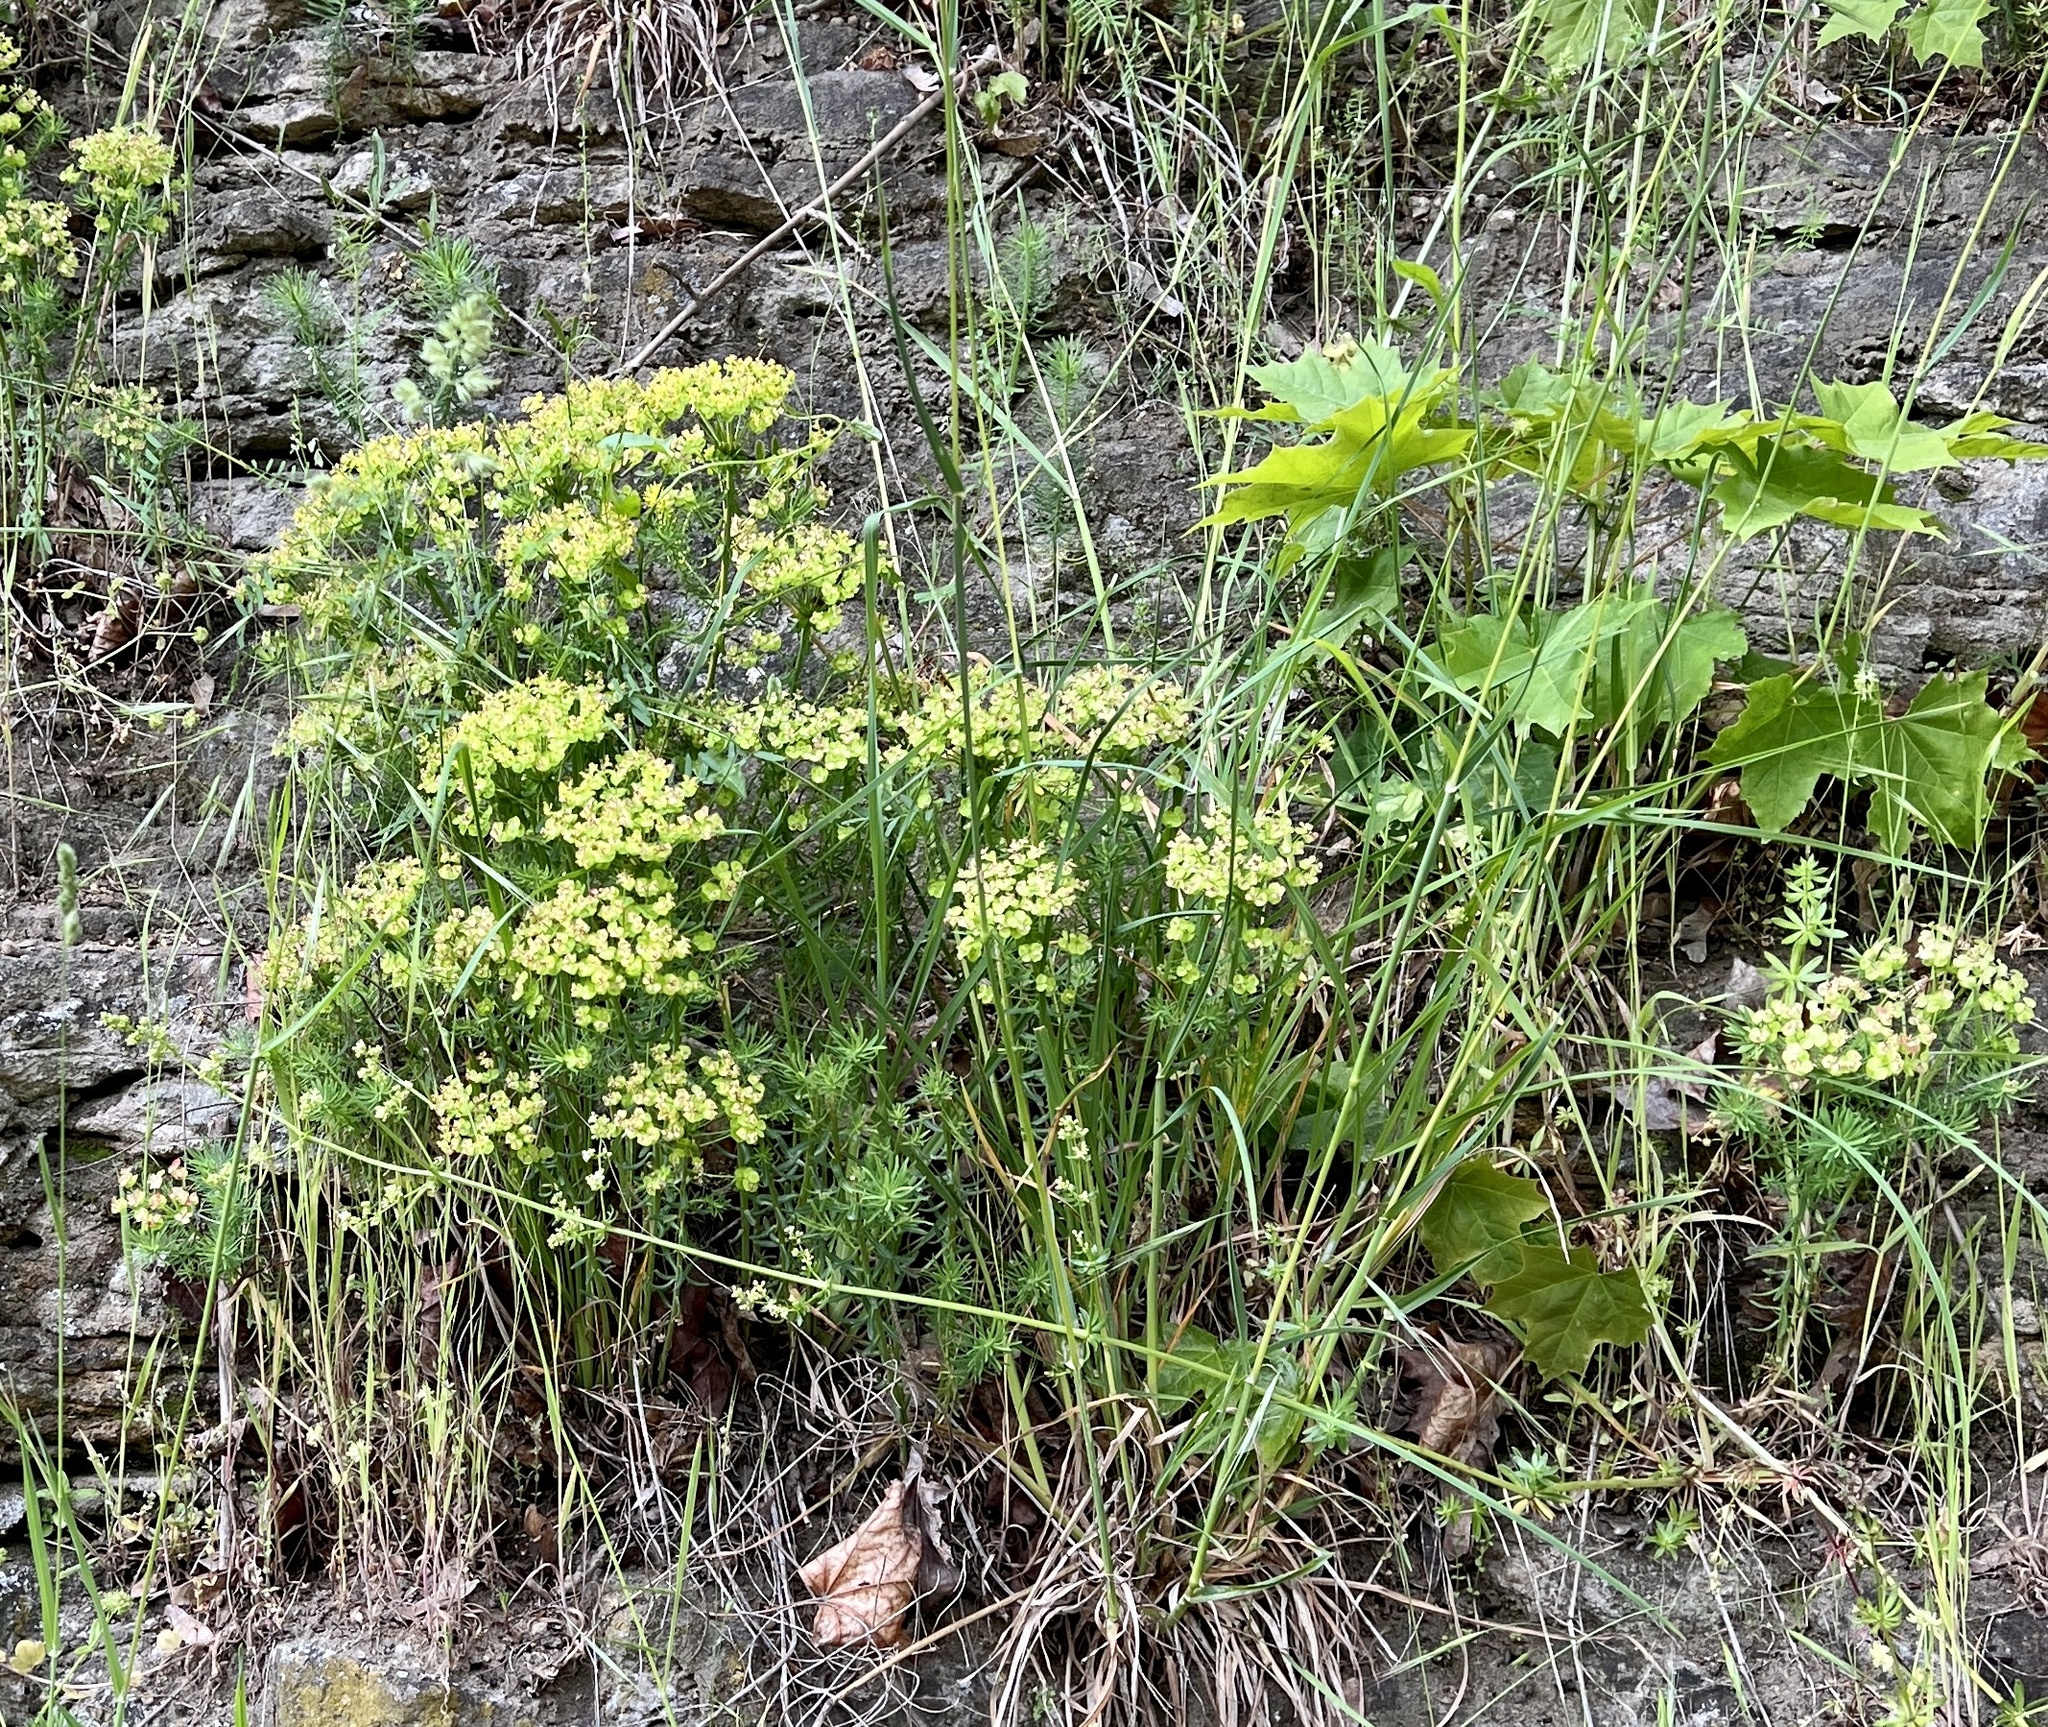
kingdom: Plantae
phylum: Tracheophyta
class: Magnoliopsida
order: Malpighiales
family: Euphorbiaceae
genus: Euphorbia
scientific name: Euphorbia cyparissias
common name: Cypress spurge
